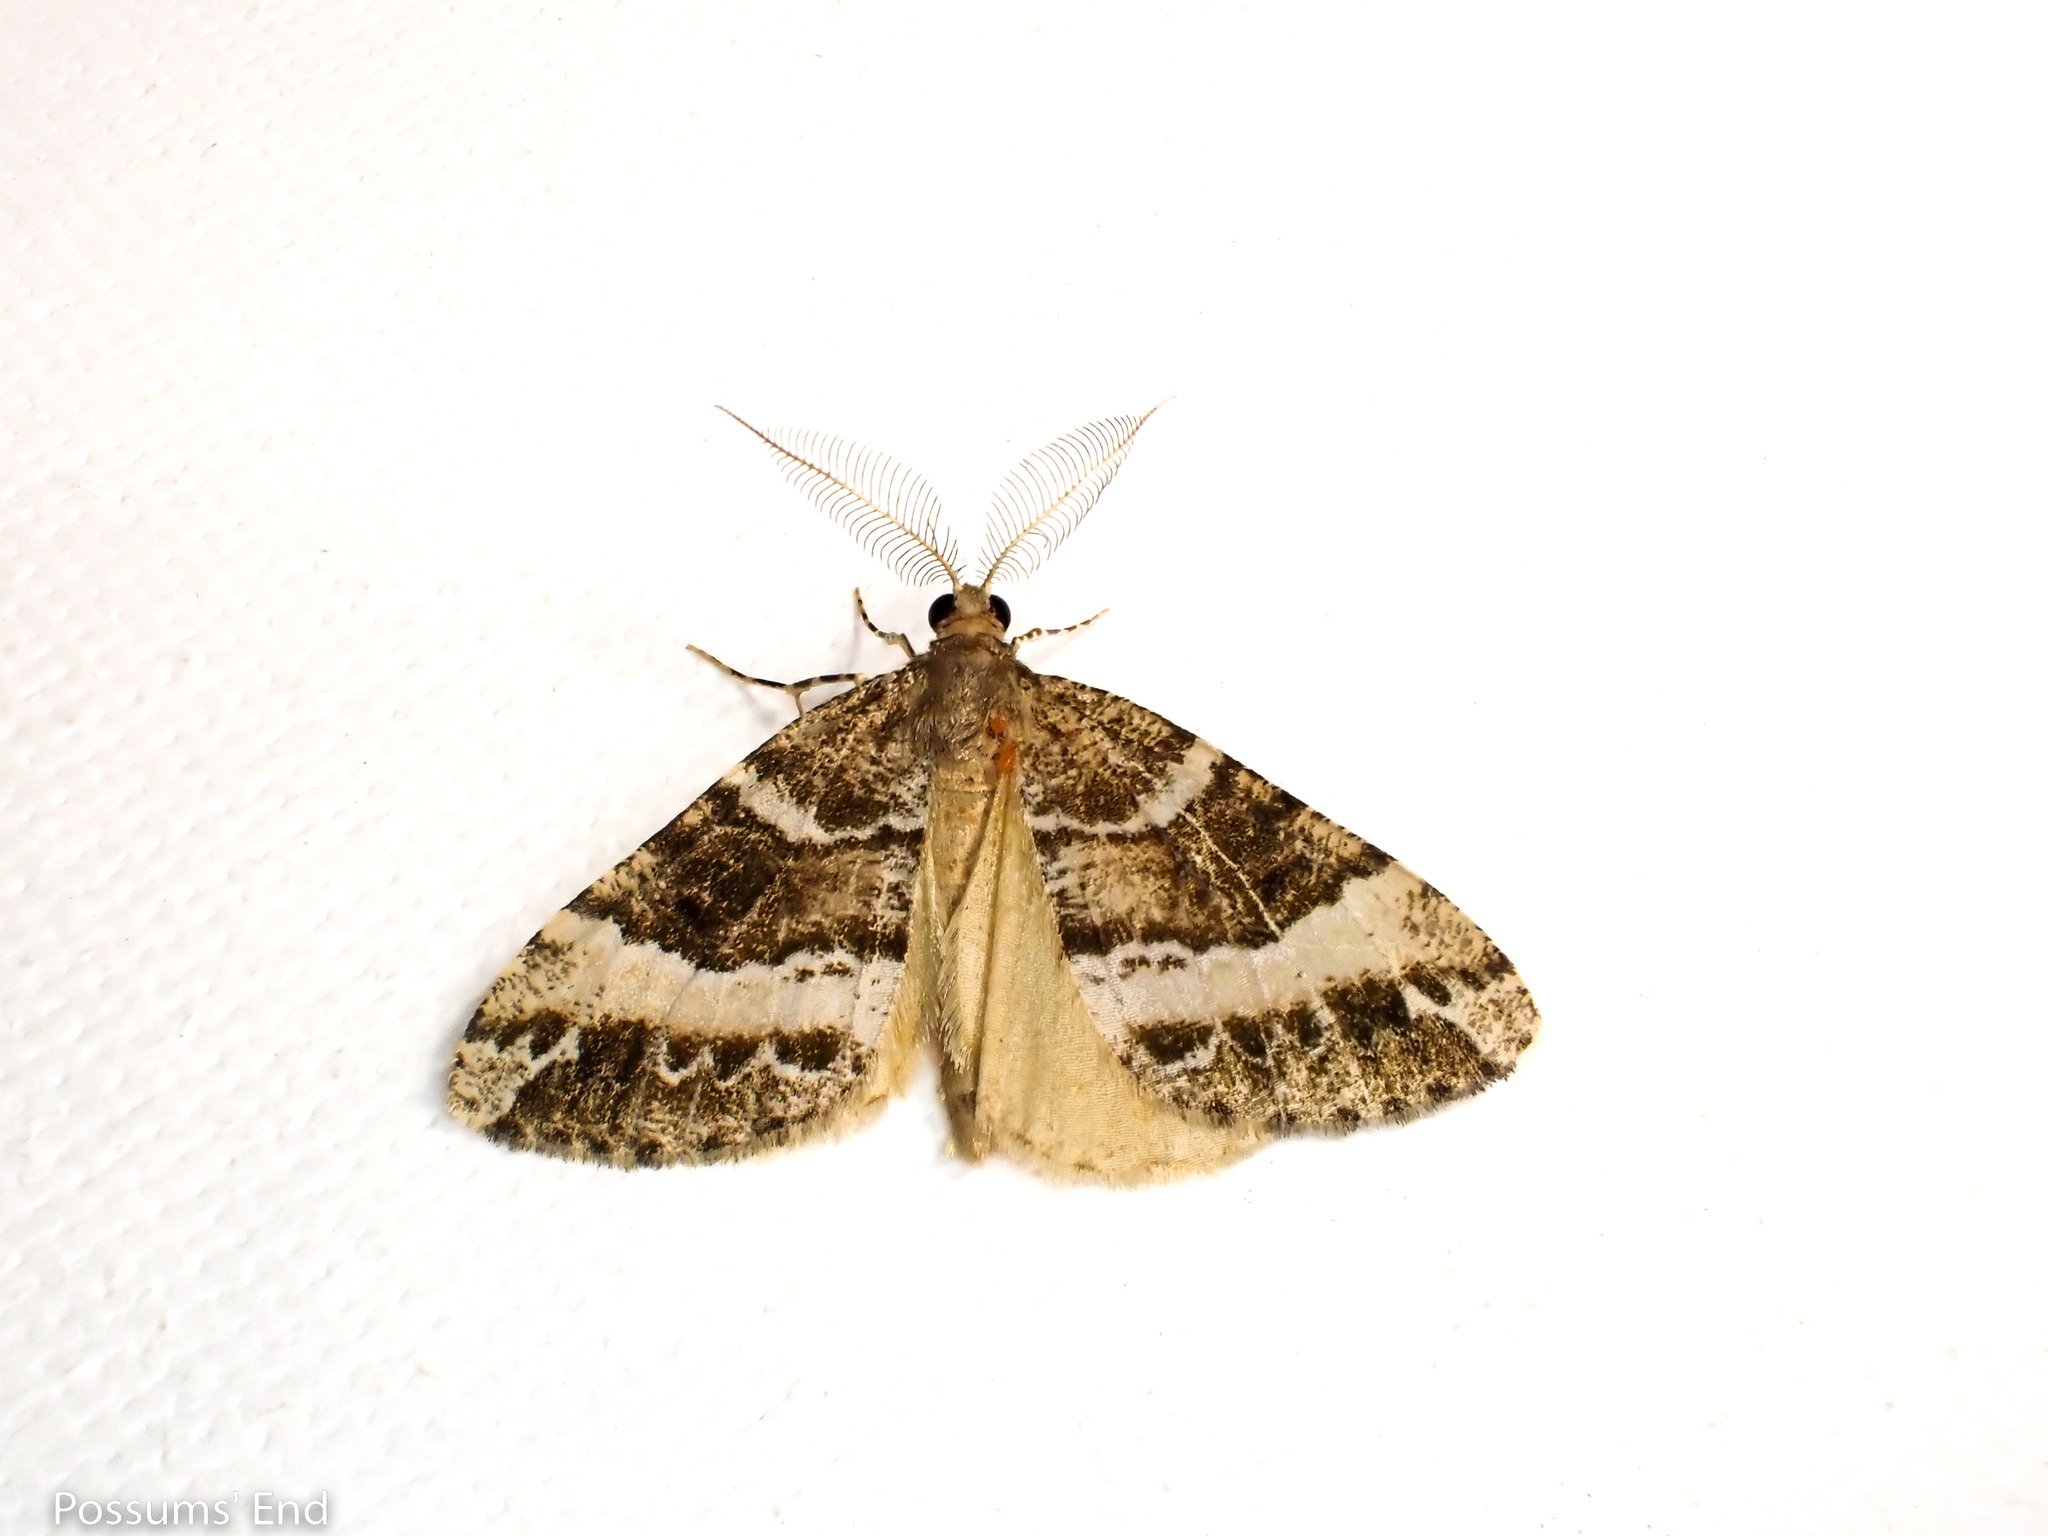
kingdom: Animalia
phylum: Arthropoda
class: Insecta
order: Lepidoptera
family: Geometridae
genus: Pseudocoremia
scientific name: Pseudocoremia
